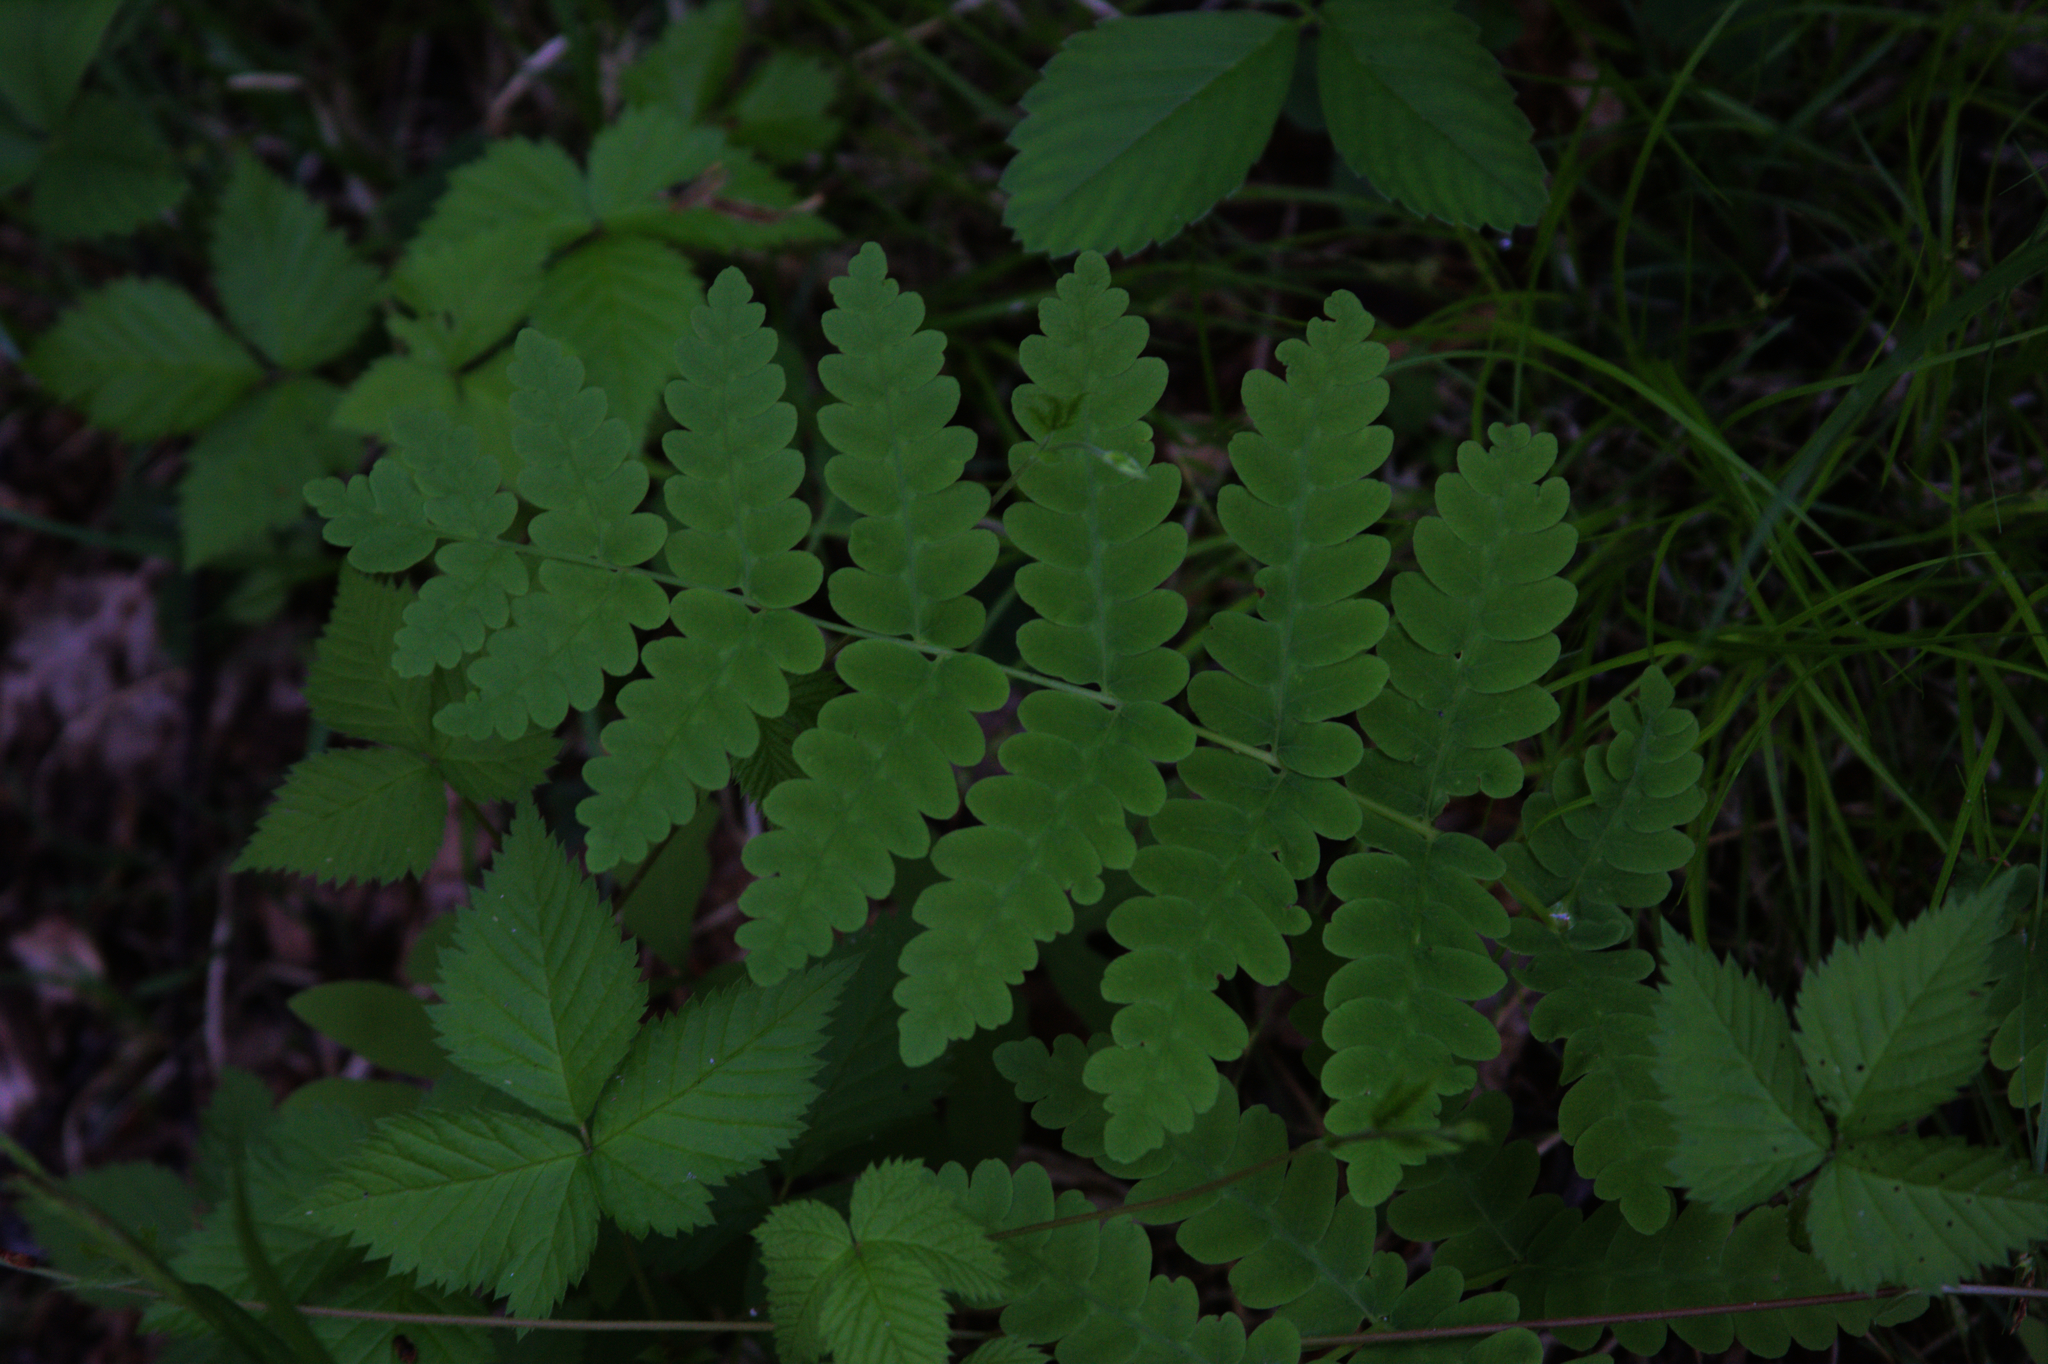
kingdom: Plantae
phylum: Tracheophyta
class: Polypodiopsida
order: Osmundales
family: Osmundaceae
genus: Claytosmunda
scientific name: Claytosmunda claytoniana
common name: Clayton's fern
